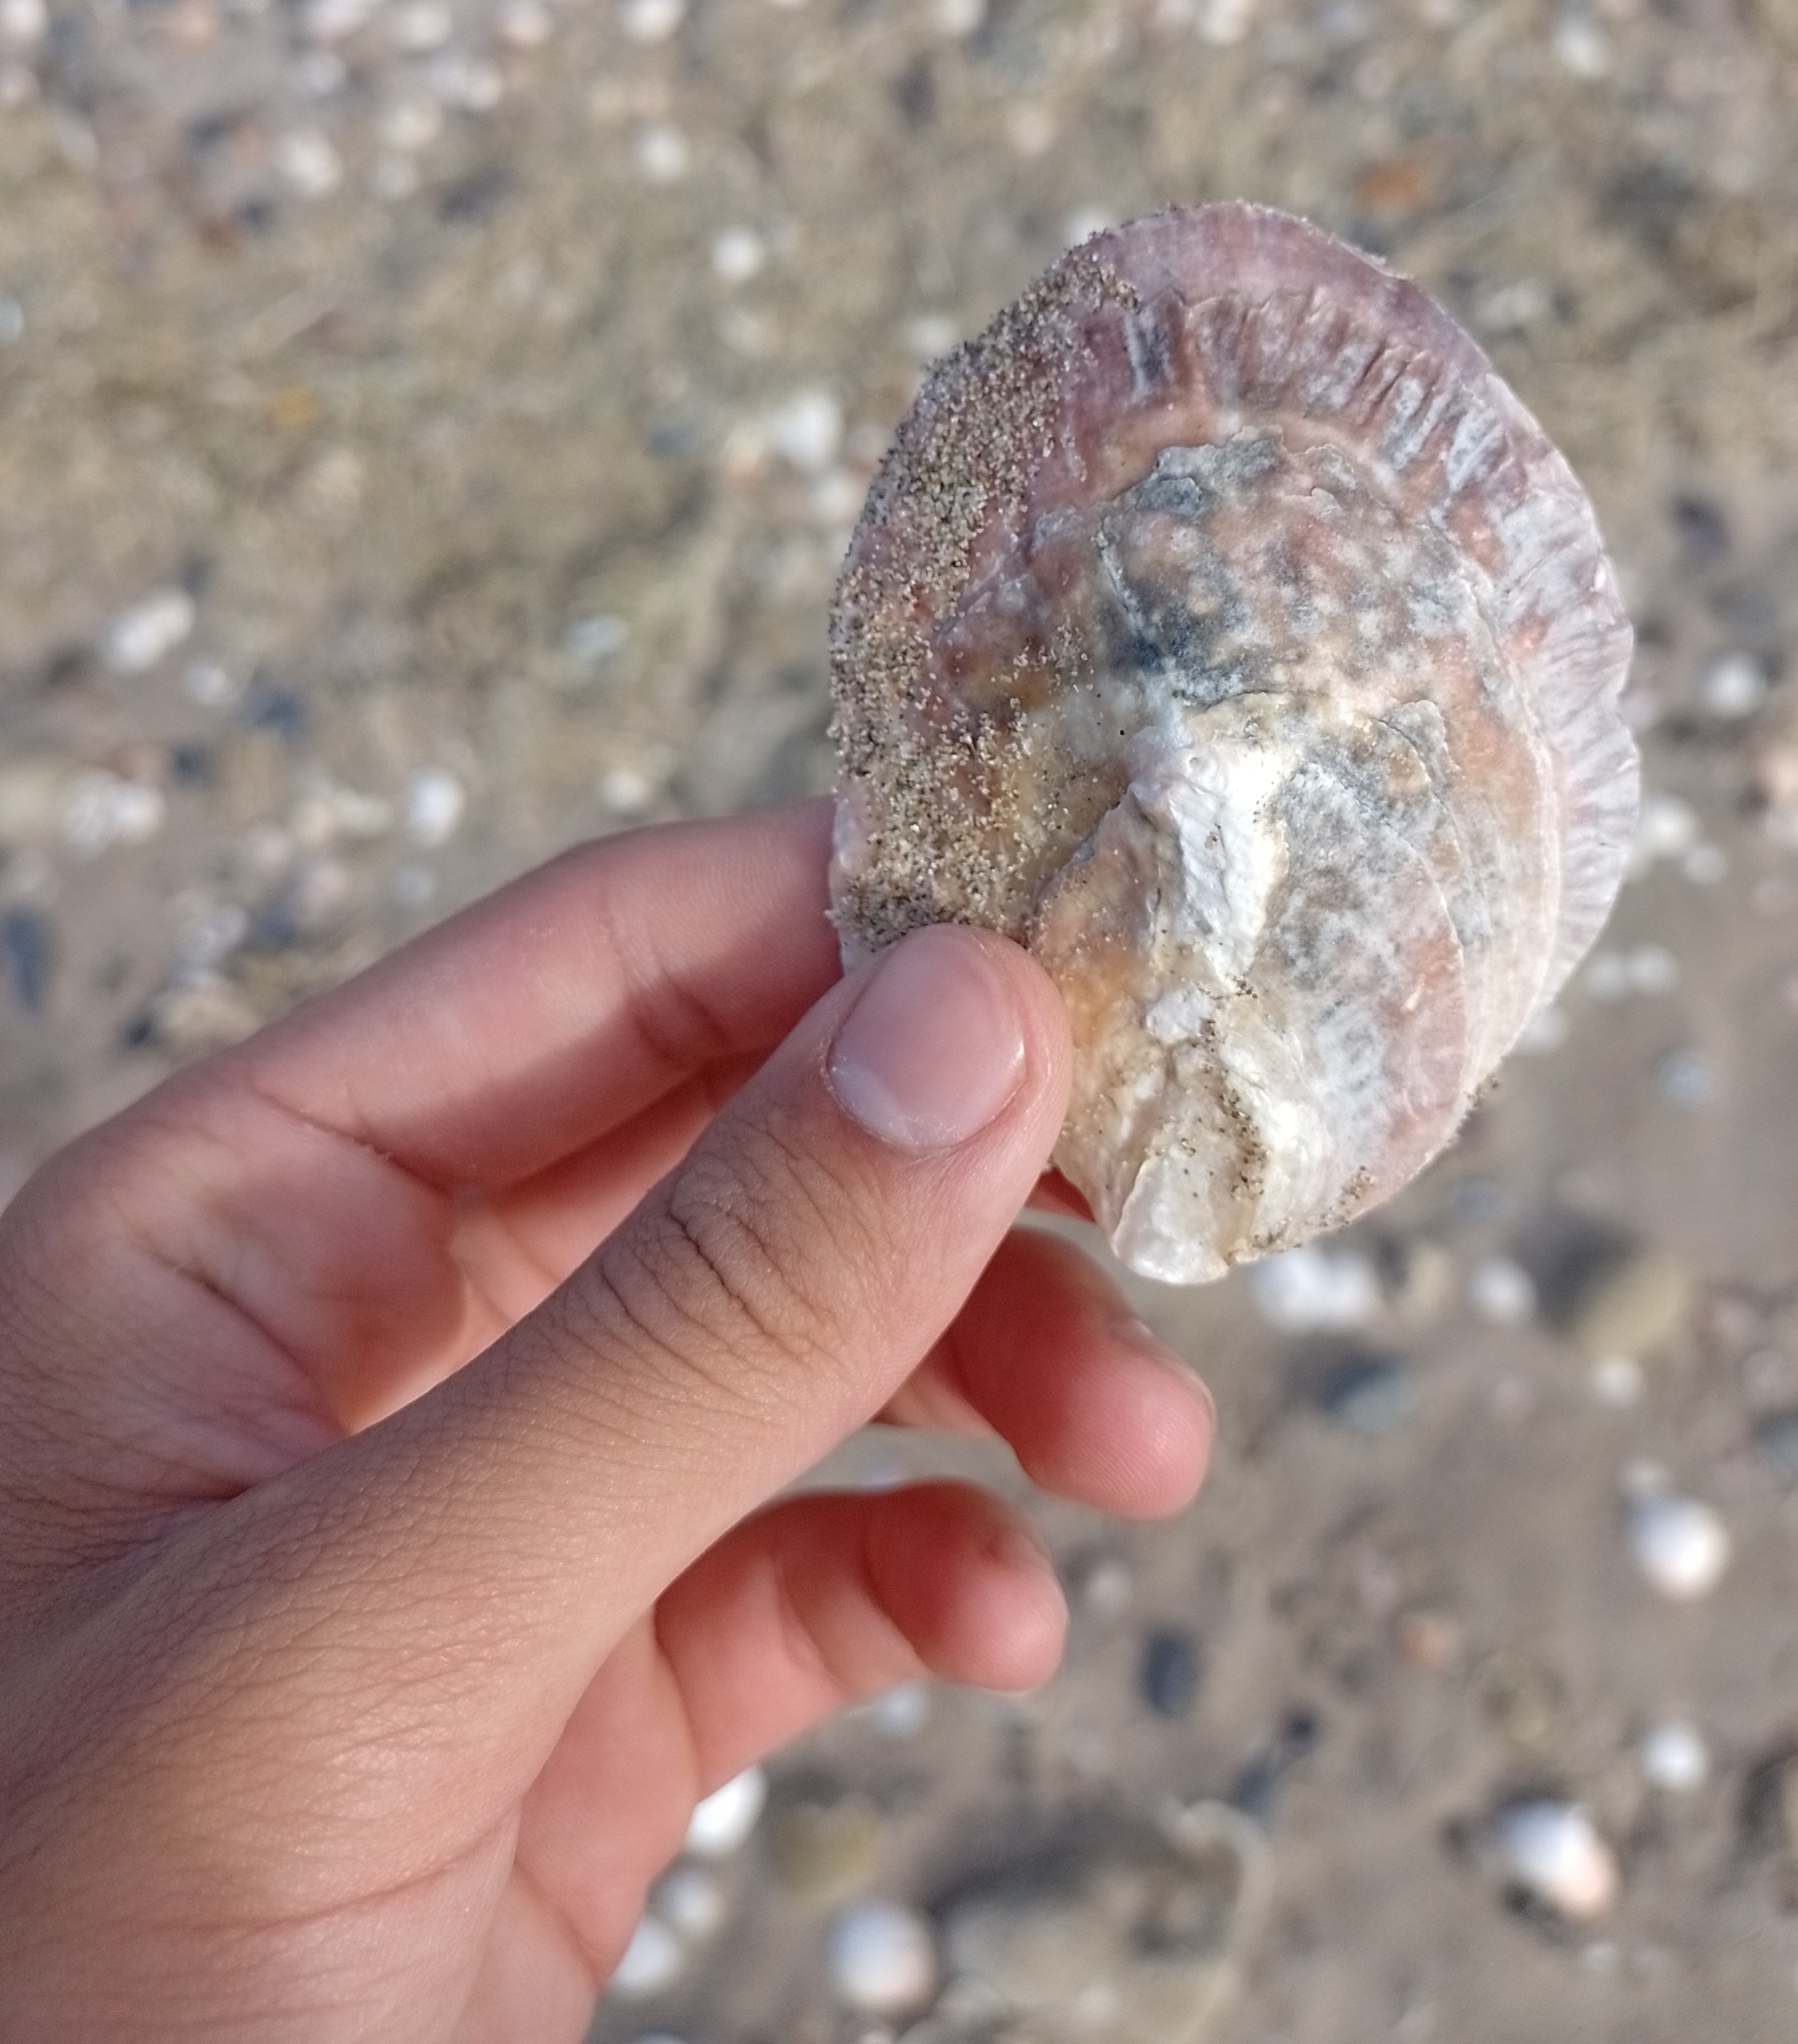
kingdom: Animalia
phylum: Mollusca
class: Bivalvia
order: Ostreida
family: Ostreidae
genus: Ostrea
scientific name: Ostrea puelchana
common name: Argentine flat oyster
